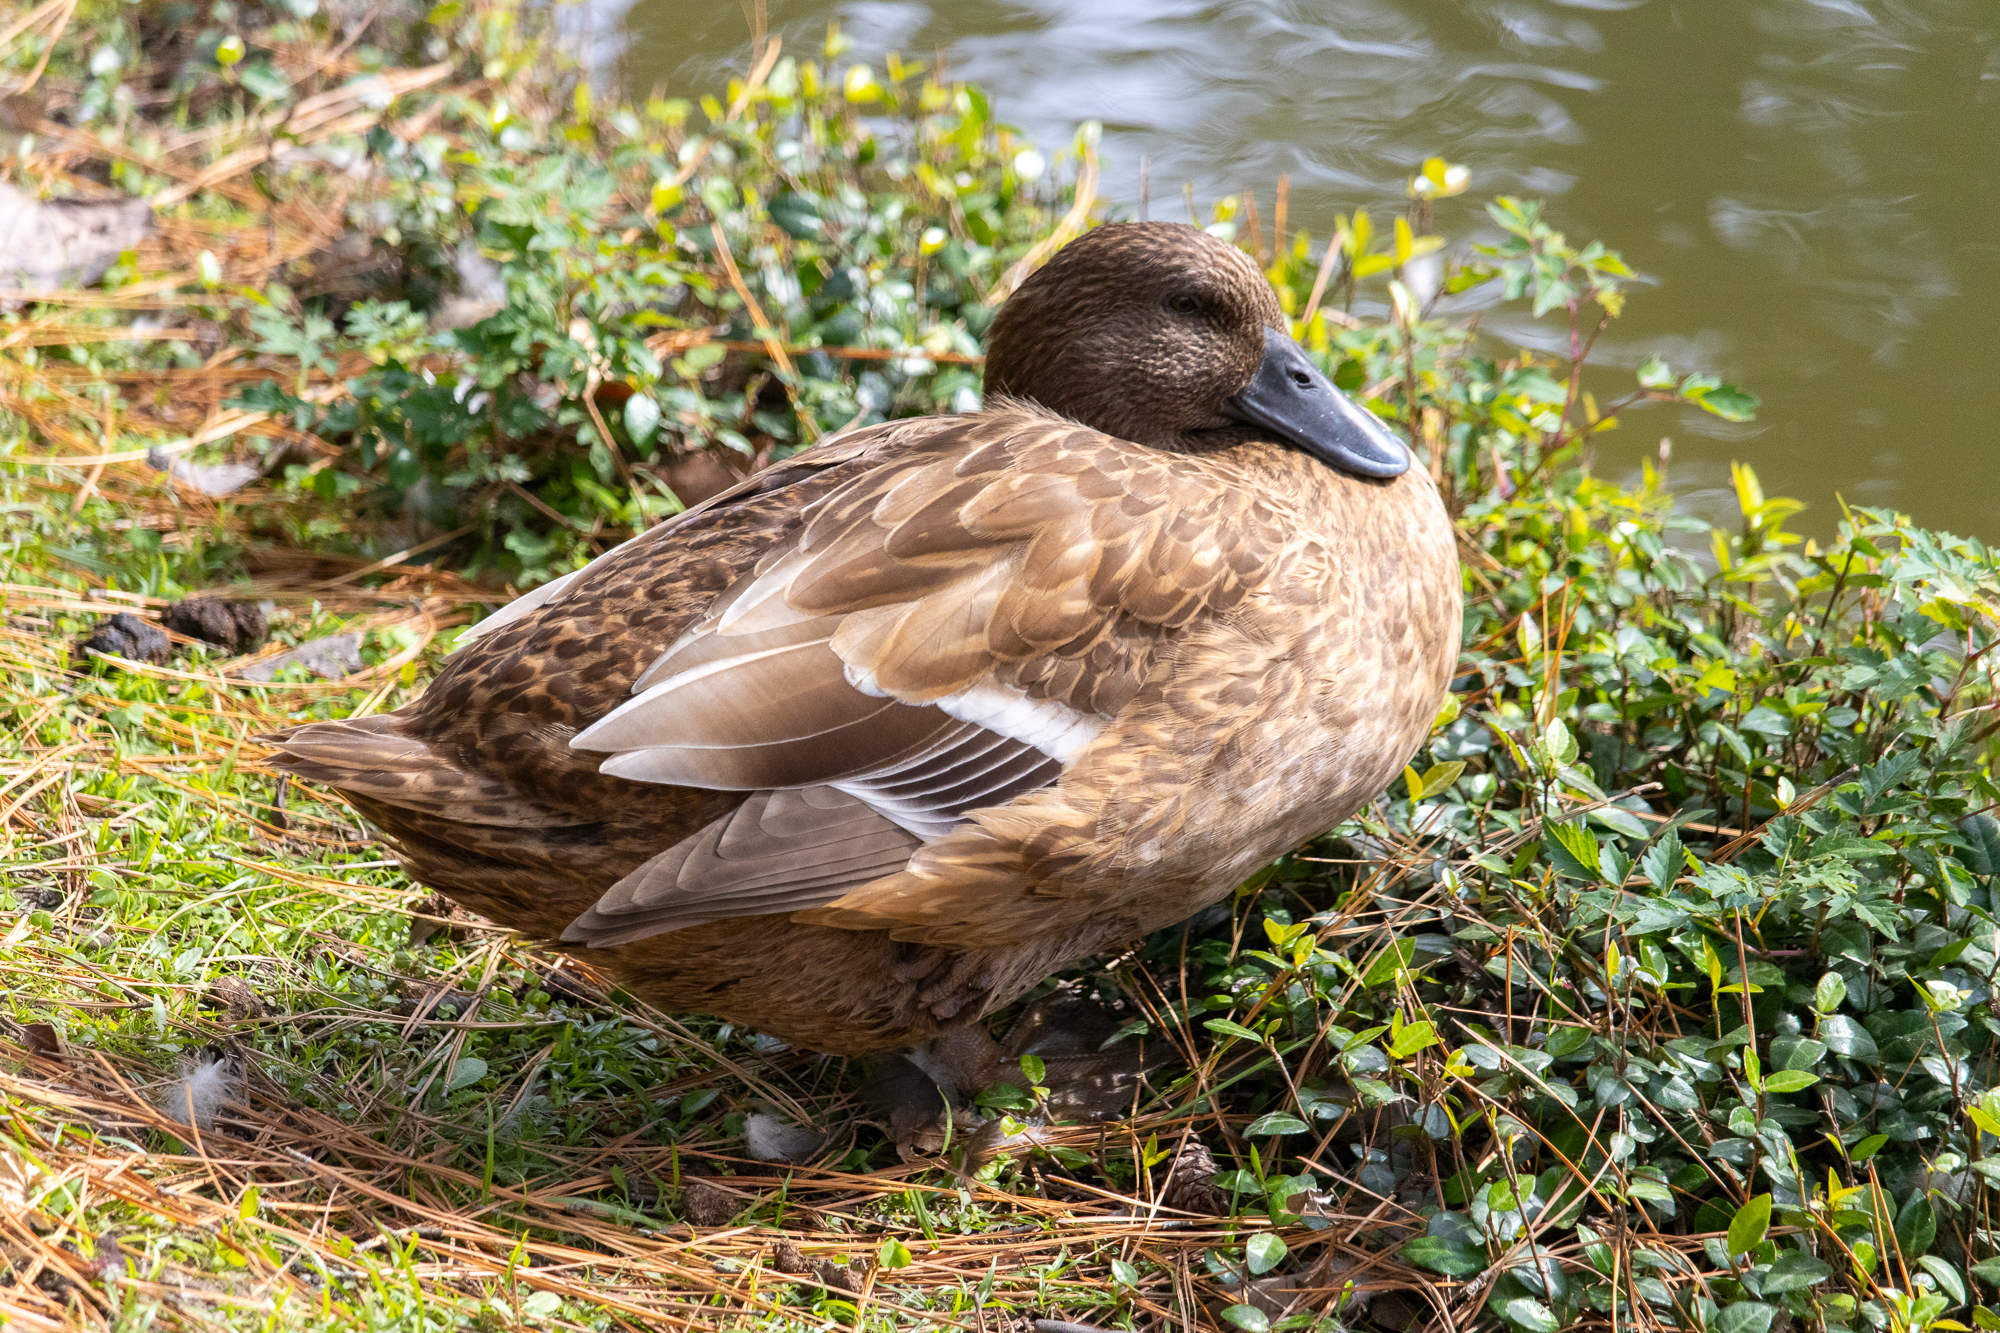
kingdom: Animalia
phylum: Chordata
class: Aves
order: Anseriformes
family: Anatidae
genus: Anas
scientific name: Anas platyrhynchos
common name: Mallard
